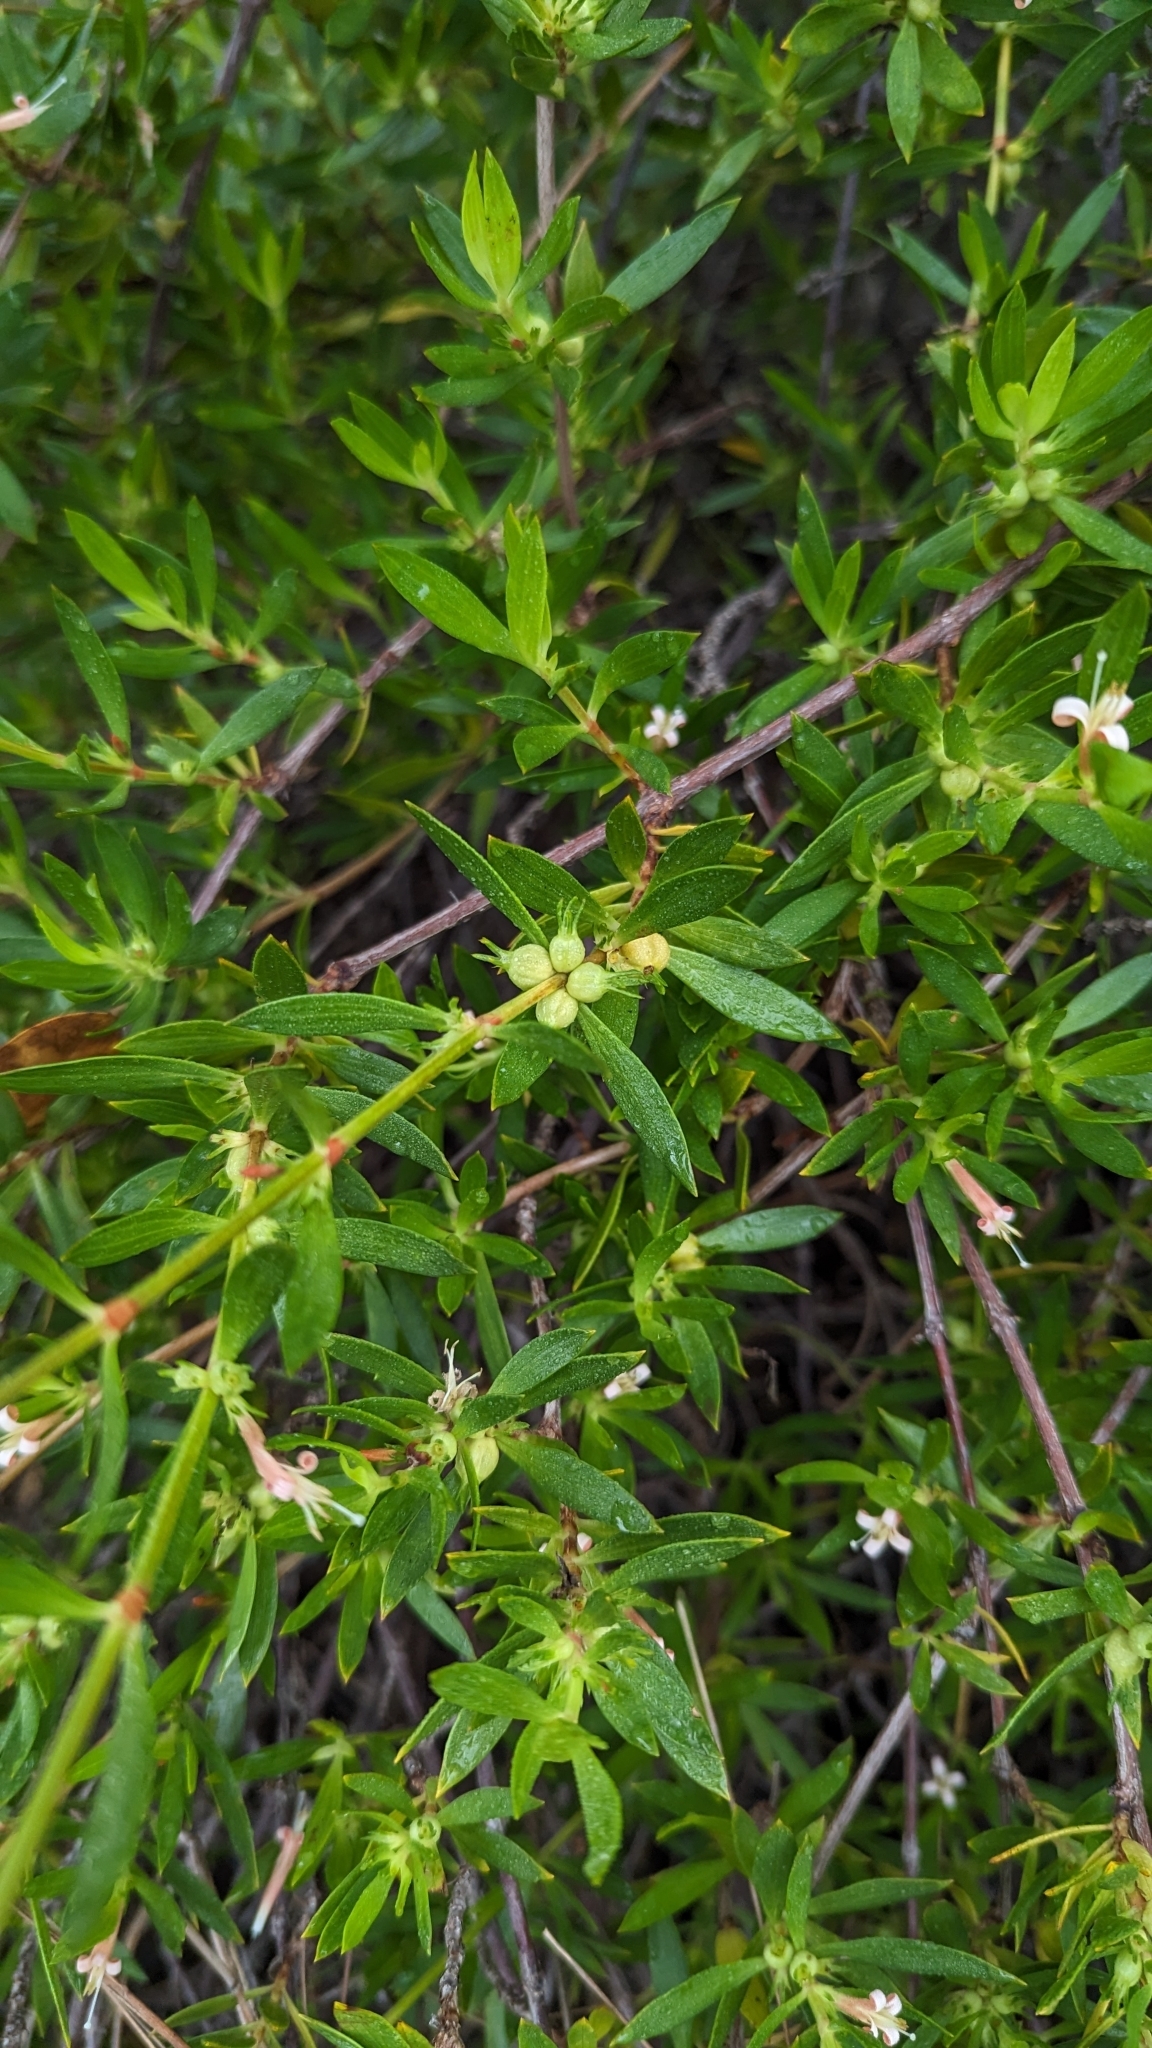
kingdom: Plantae
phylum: Tracheophyta
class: Magnoliopsida
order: Gentianales
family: Rubiaceae
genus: Ernodea
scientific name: Ernodea littoralis
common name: Beach creeper
